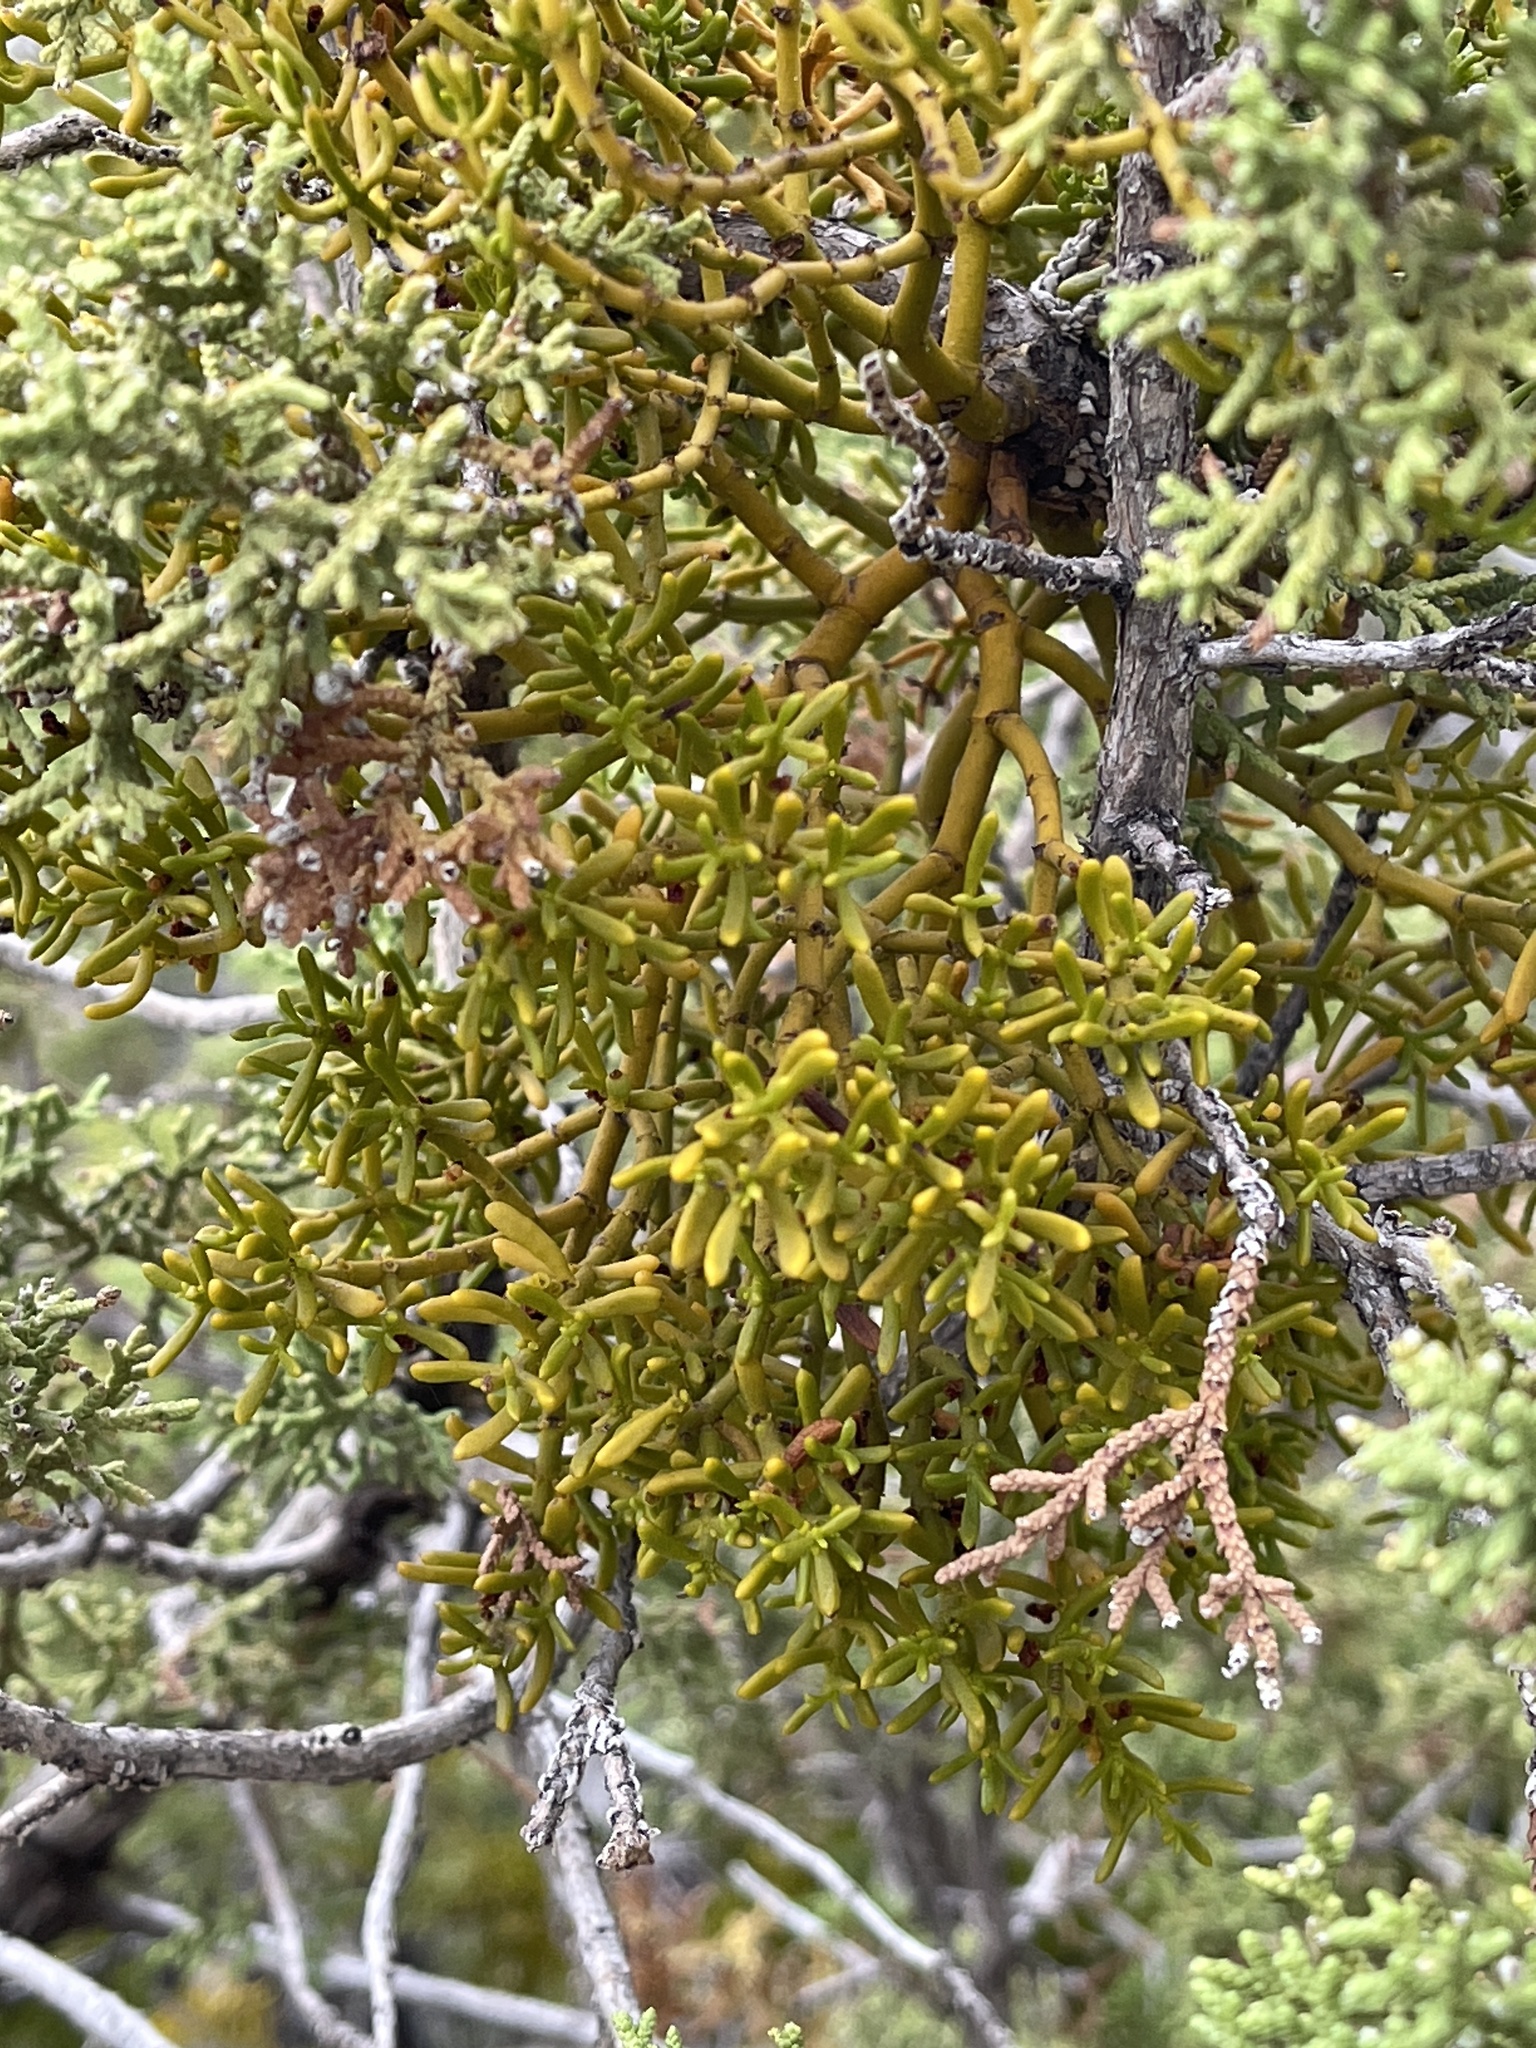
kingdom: Plantae
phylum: Tracheophyta
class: Magnoliopsida
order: Santalales
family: Viscaceae
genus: Phoradendron
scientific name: Phoradendron hawksworthii
